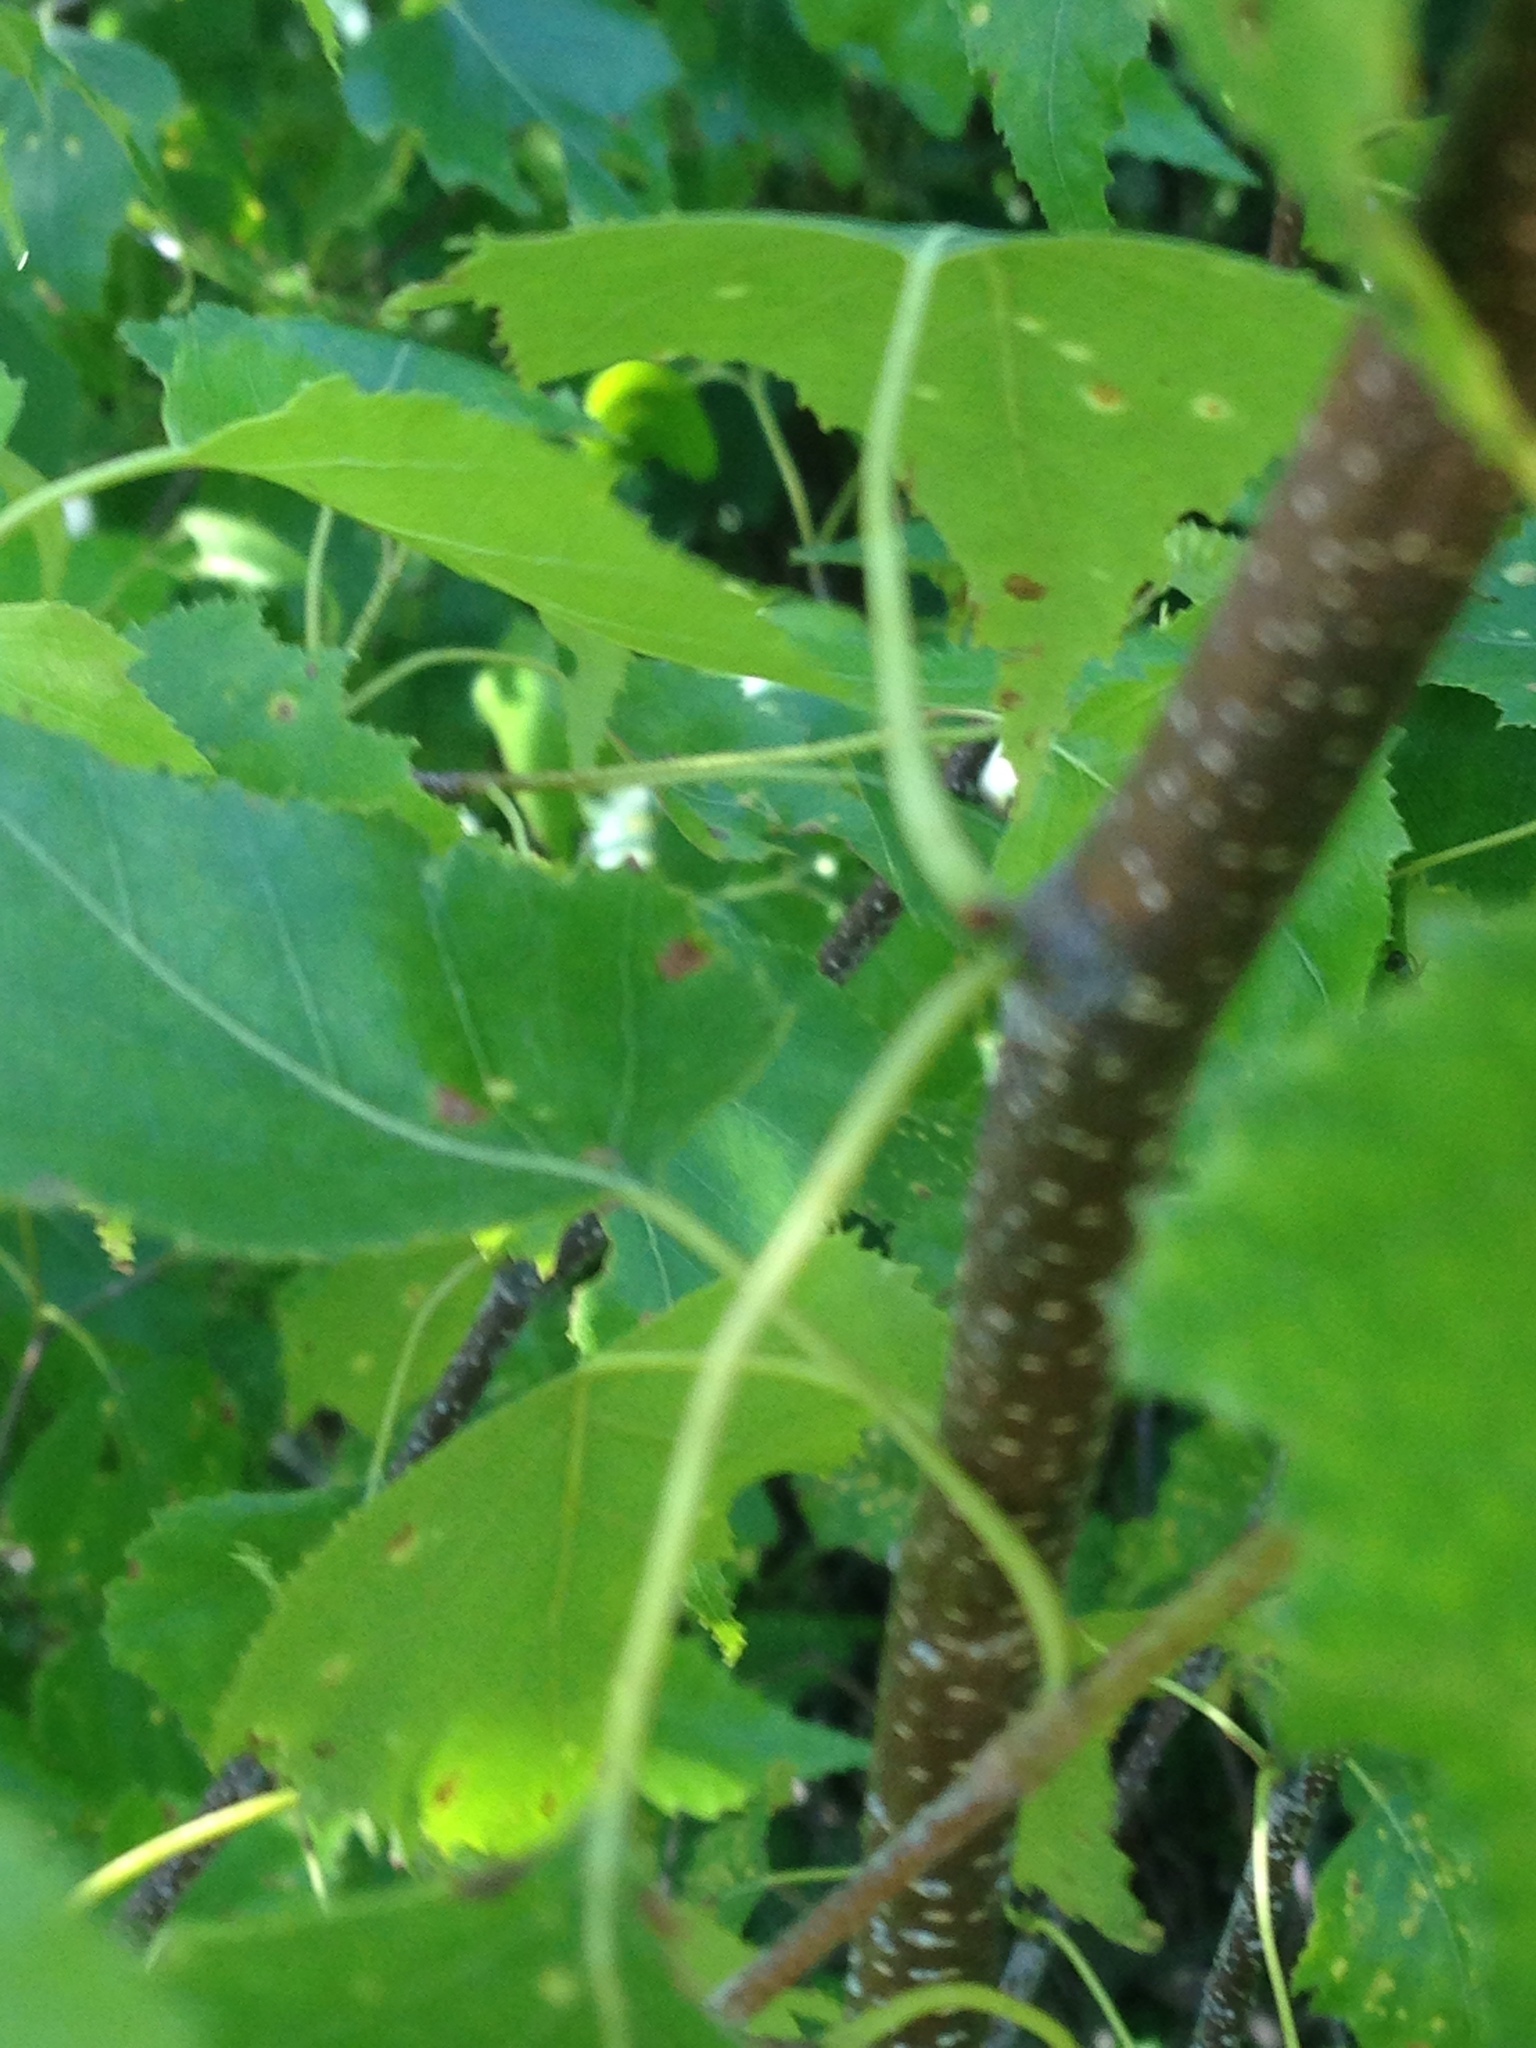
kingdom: Plantae
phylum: Tracheophyta
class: Magnoliopsida
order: Fagales
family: Betulaceae
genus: Betula
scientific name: Betula populifolia
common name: Fire birch
